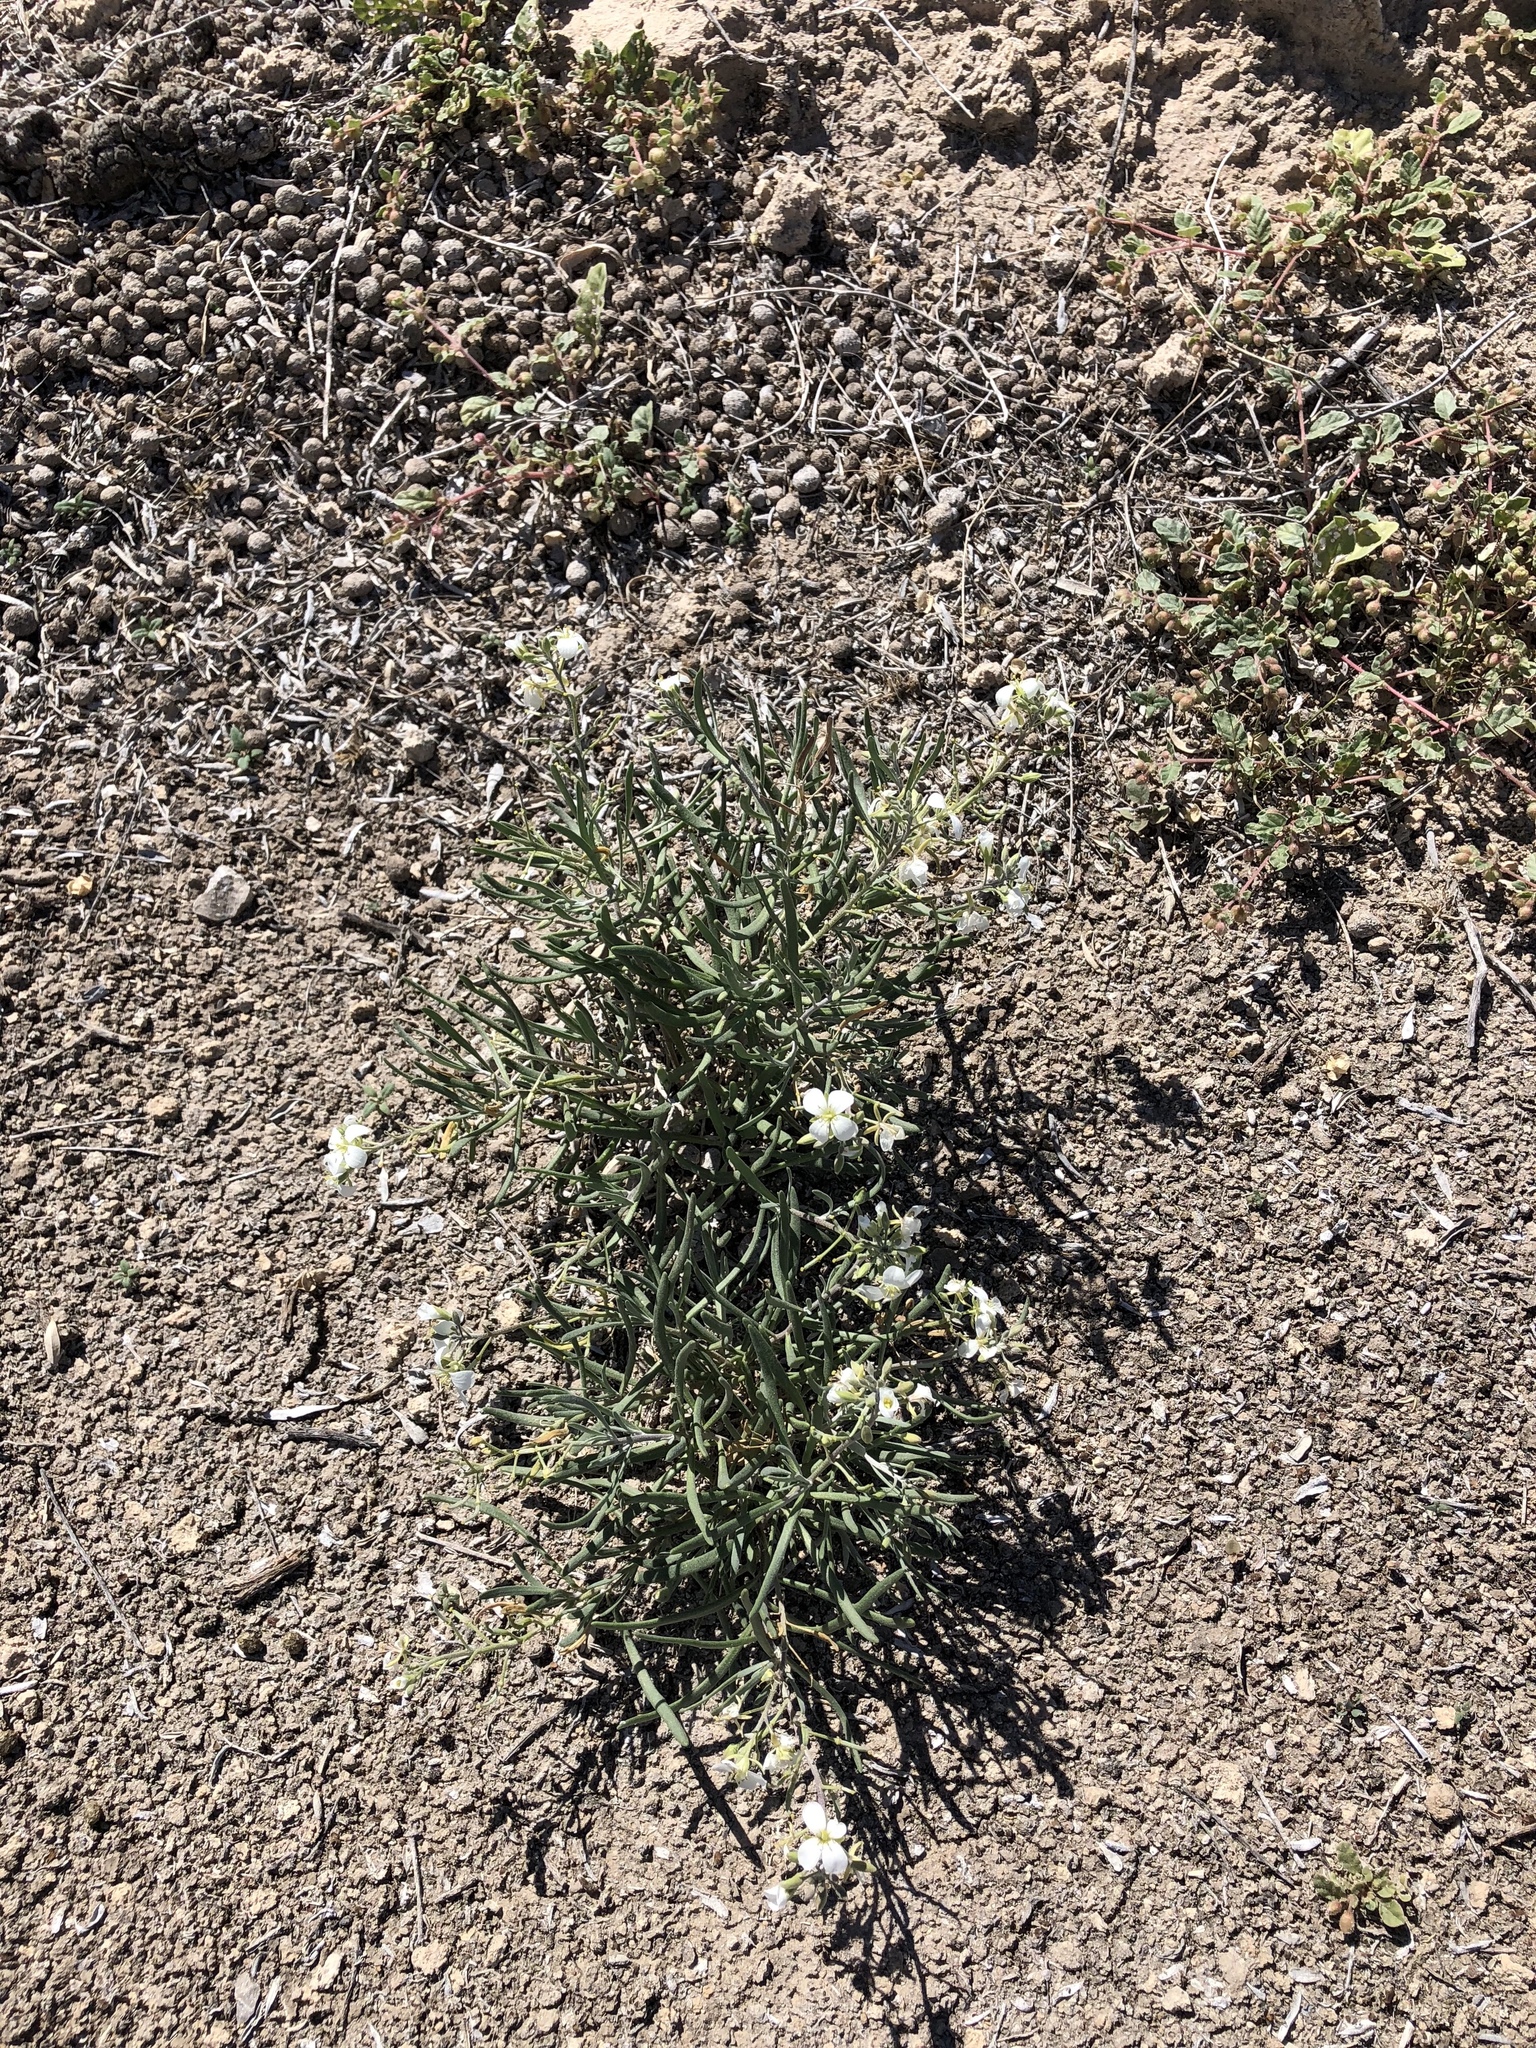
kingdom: Plantae
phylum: Tracheophyta
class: Magnoliopsida
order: Brassicales
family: Brassicaceae
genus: Nerisyrenia
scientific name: Nerisyrenia linearifolia
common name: White sands fan mustard
